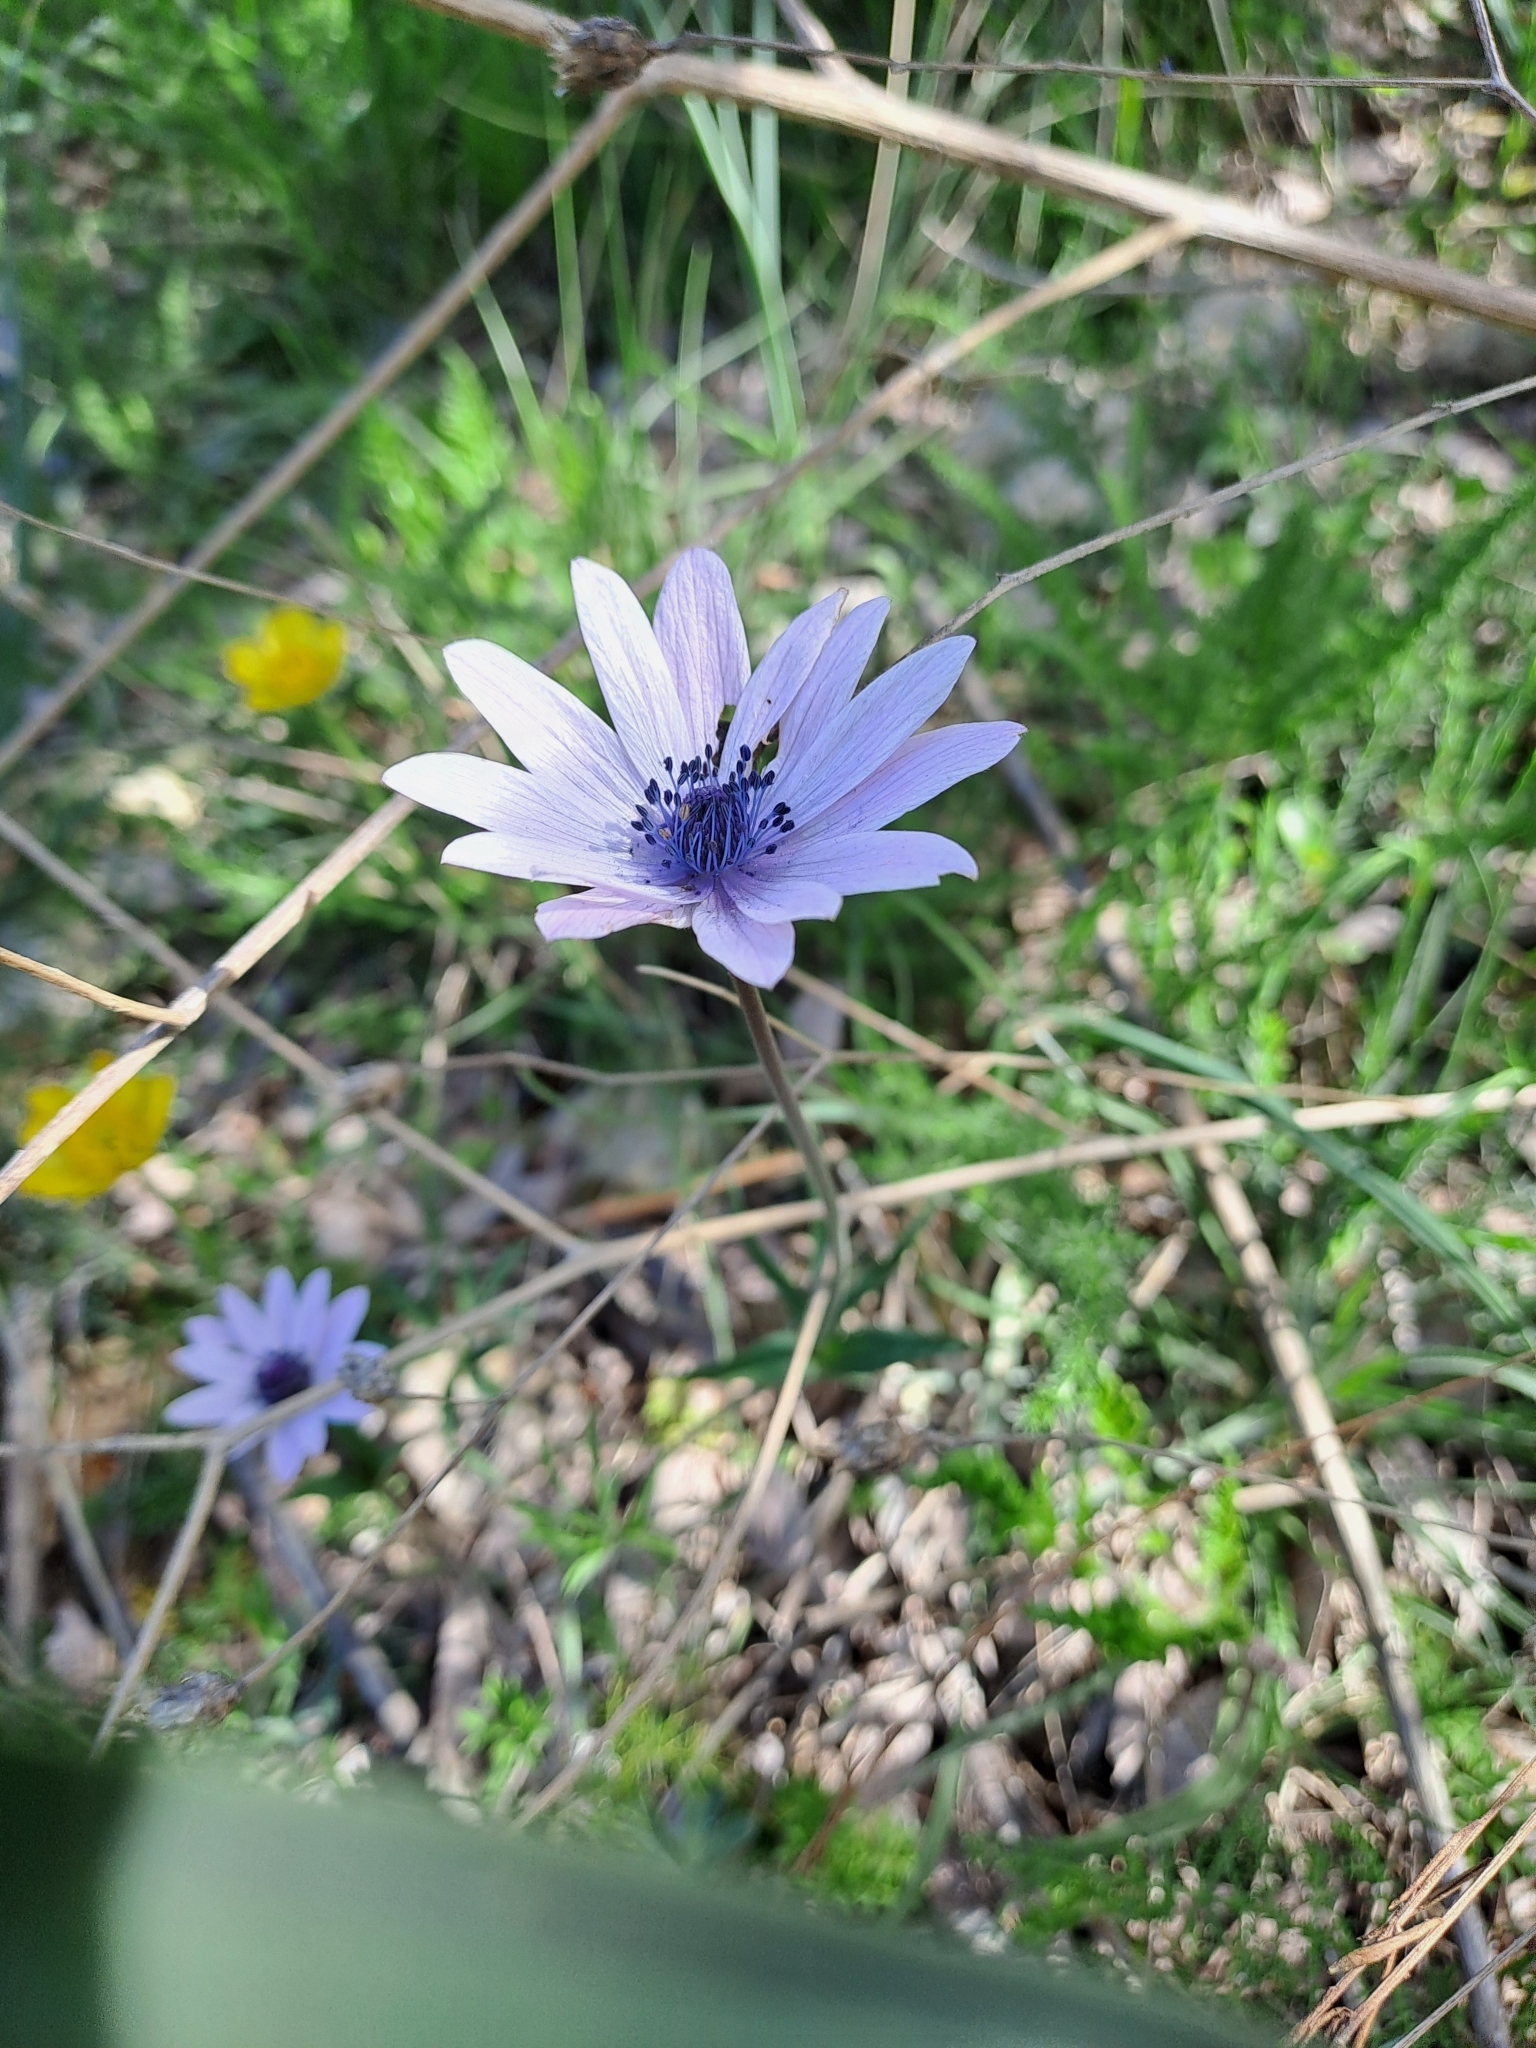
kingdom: Plantae
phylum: Tracheophyta
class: Magnoliopsida
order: Ranunculales
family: Ranunculaceae
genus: Anemone
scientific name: Anemone hortensis
